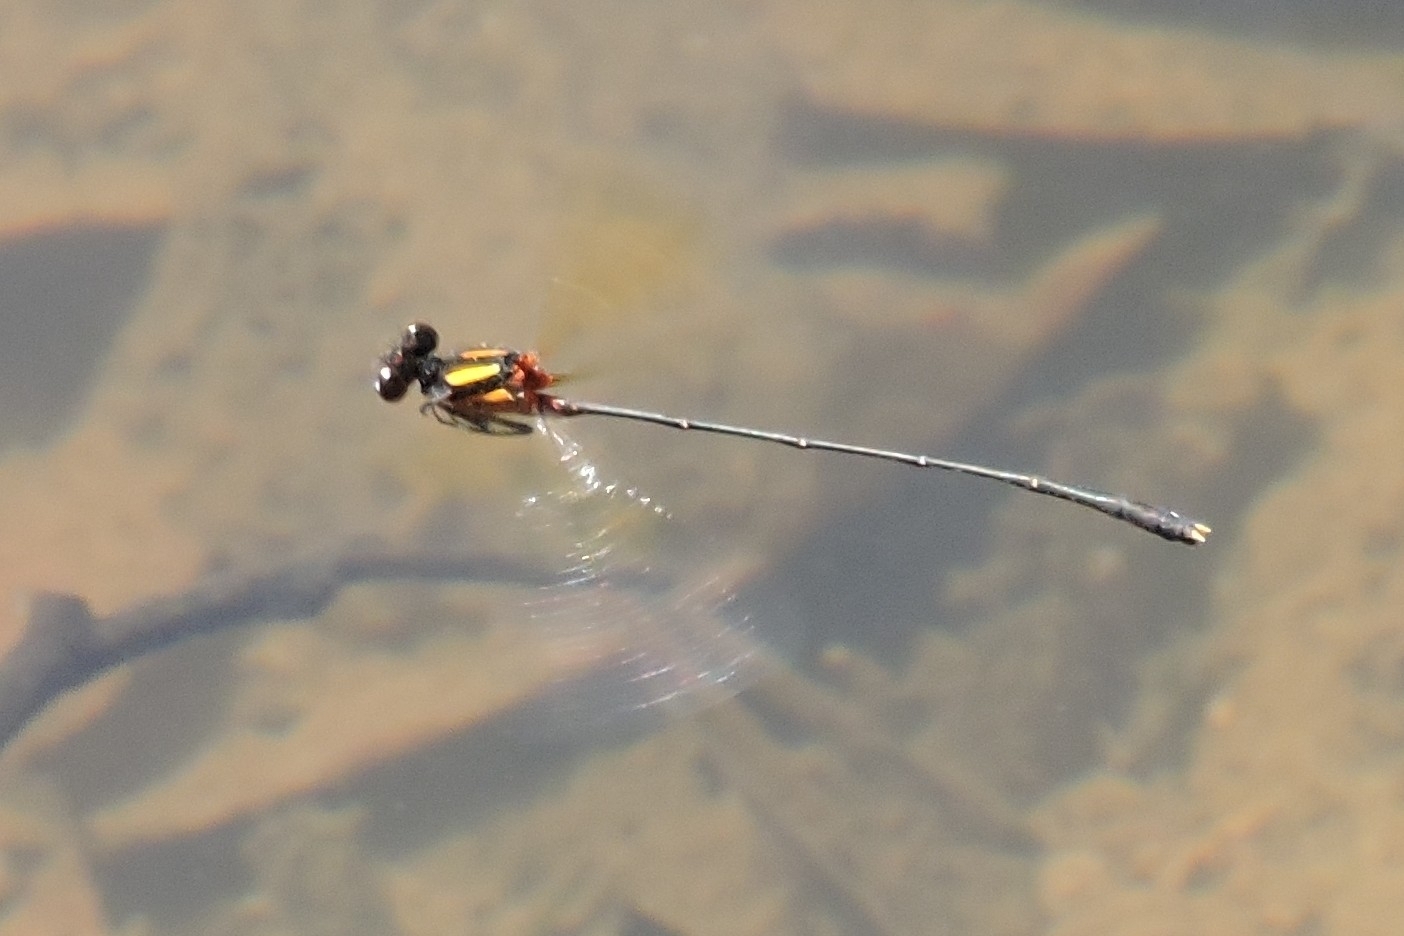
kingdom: Animalia
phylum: Arthropoda
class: Insecta
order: Odonata
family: Platycnemididae
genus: Nososticta
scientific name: Nososticta solida
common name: Orange threadtail
